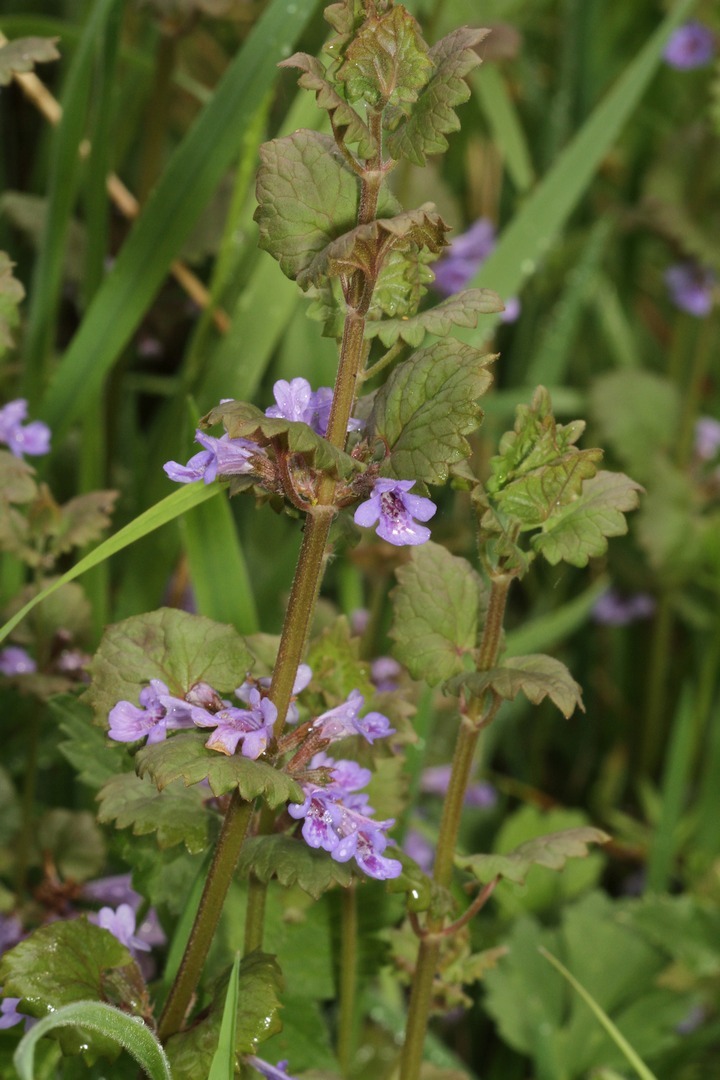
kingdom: Plantae
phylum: Tracheophyta
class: Magnoliopsida
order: Lamiales
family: Lamiaceae
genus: Glechoma
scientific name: Glechoma hederacea
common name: Ground ivy
